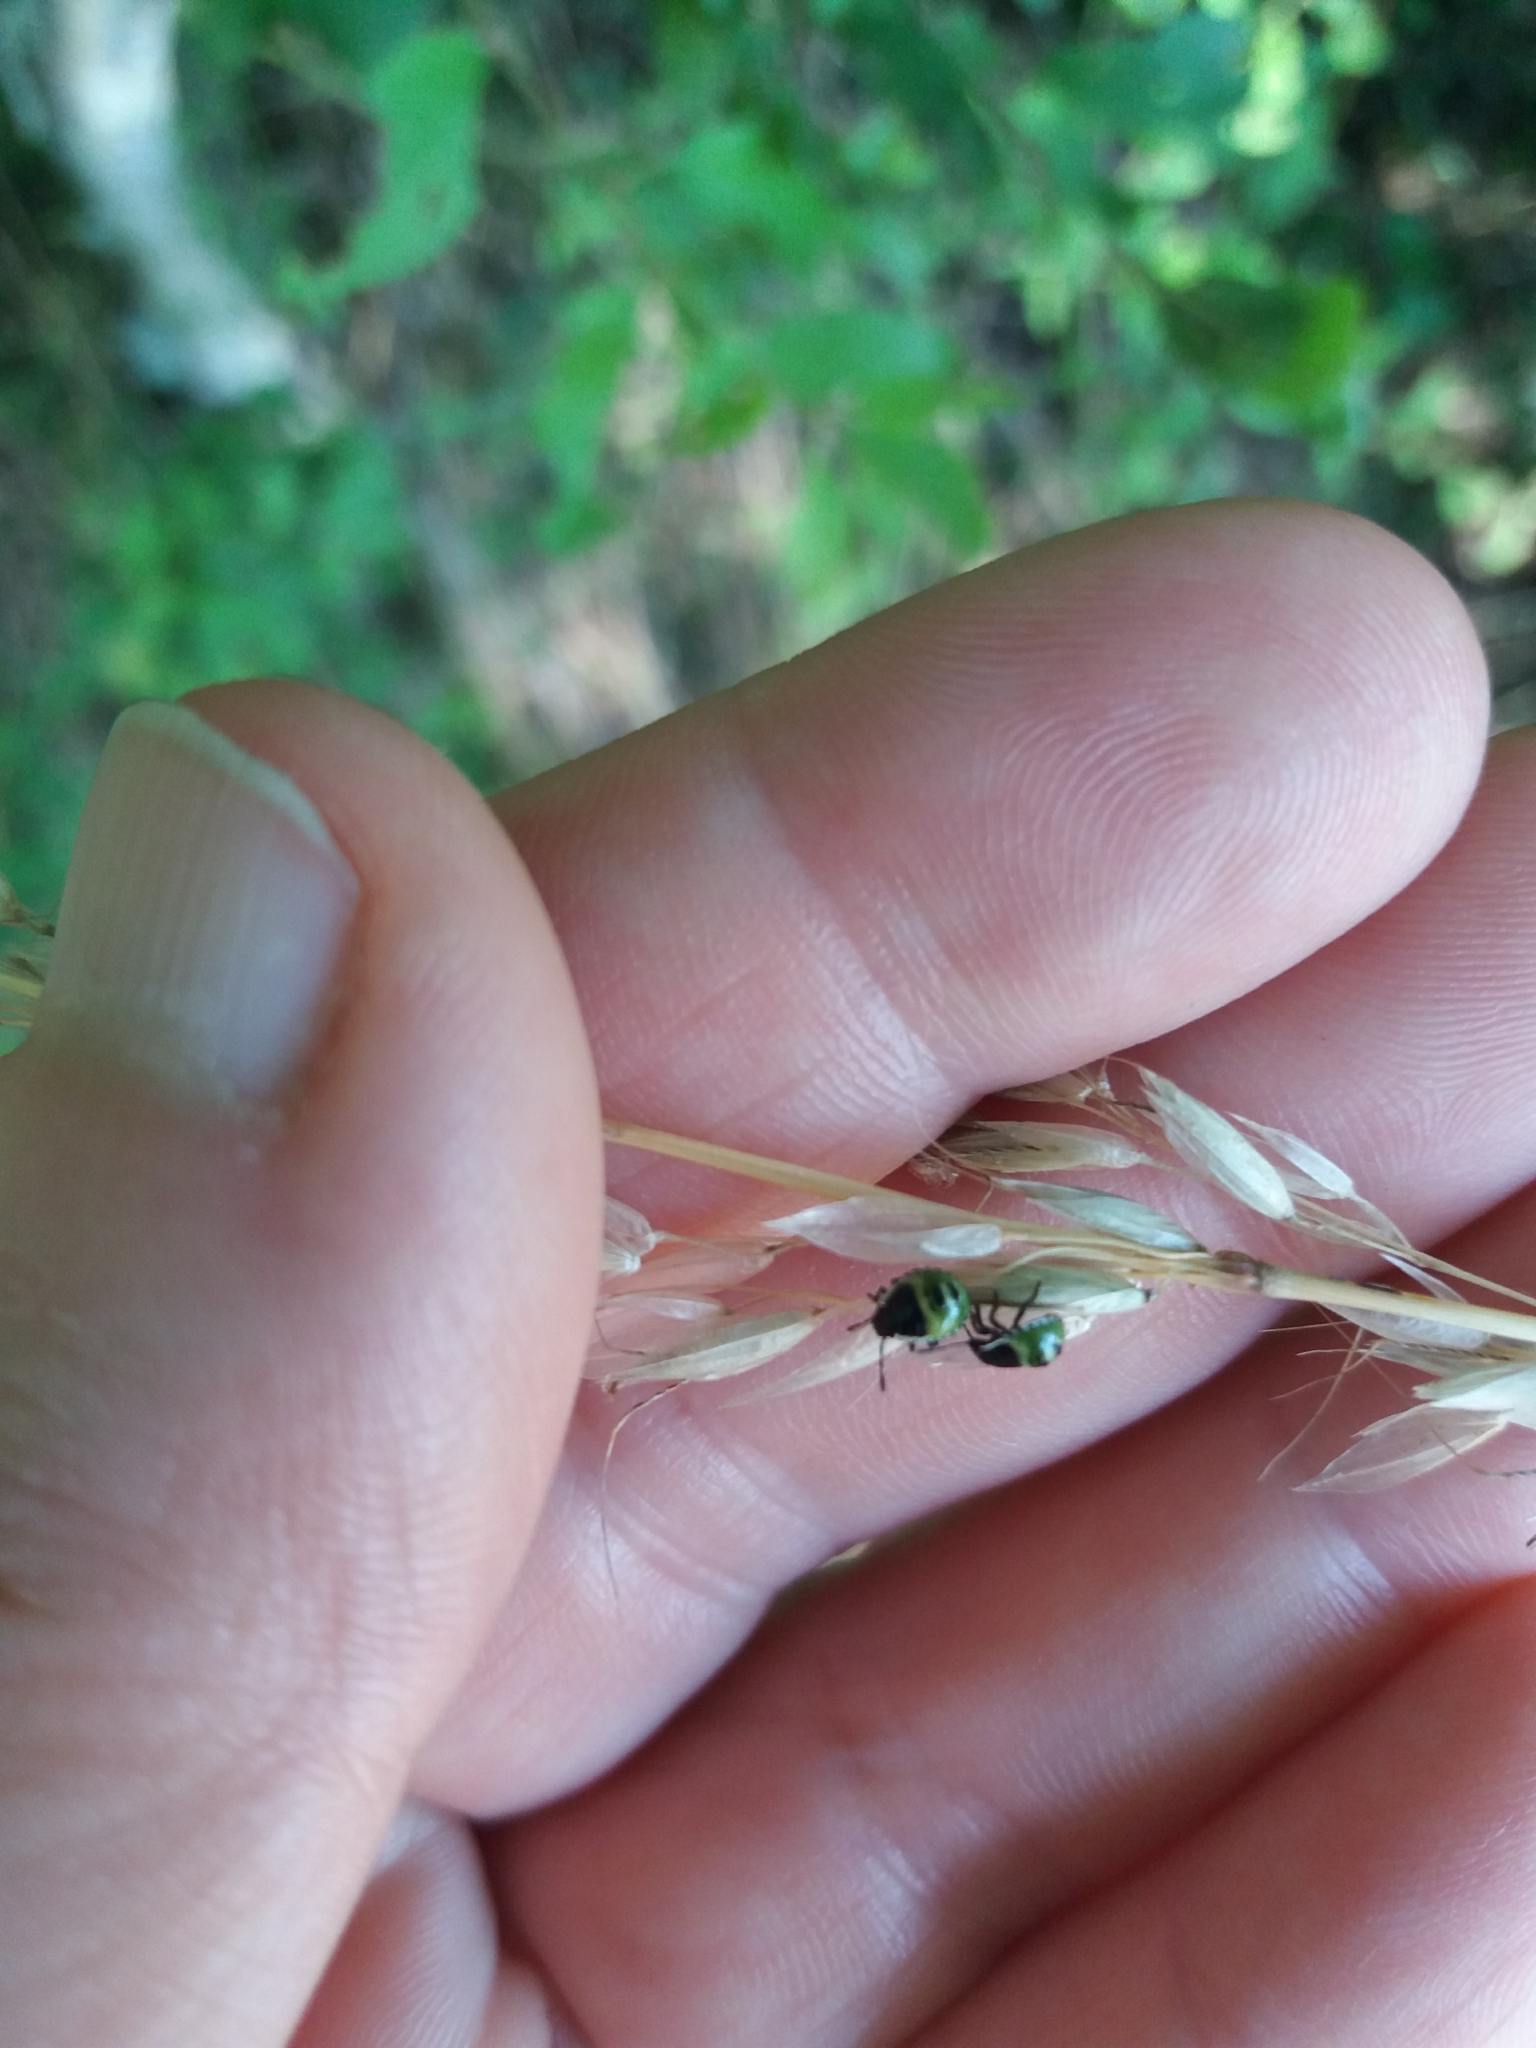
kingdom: Animalia
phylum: Arthropoda
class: Insecta
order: Hemiptera
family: Pentatomidae
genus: Palomena
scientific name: Palomena prasina
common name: Green shieldbug
